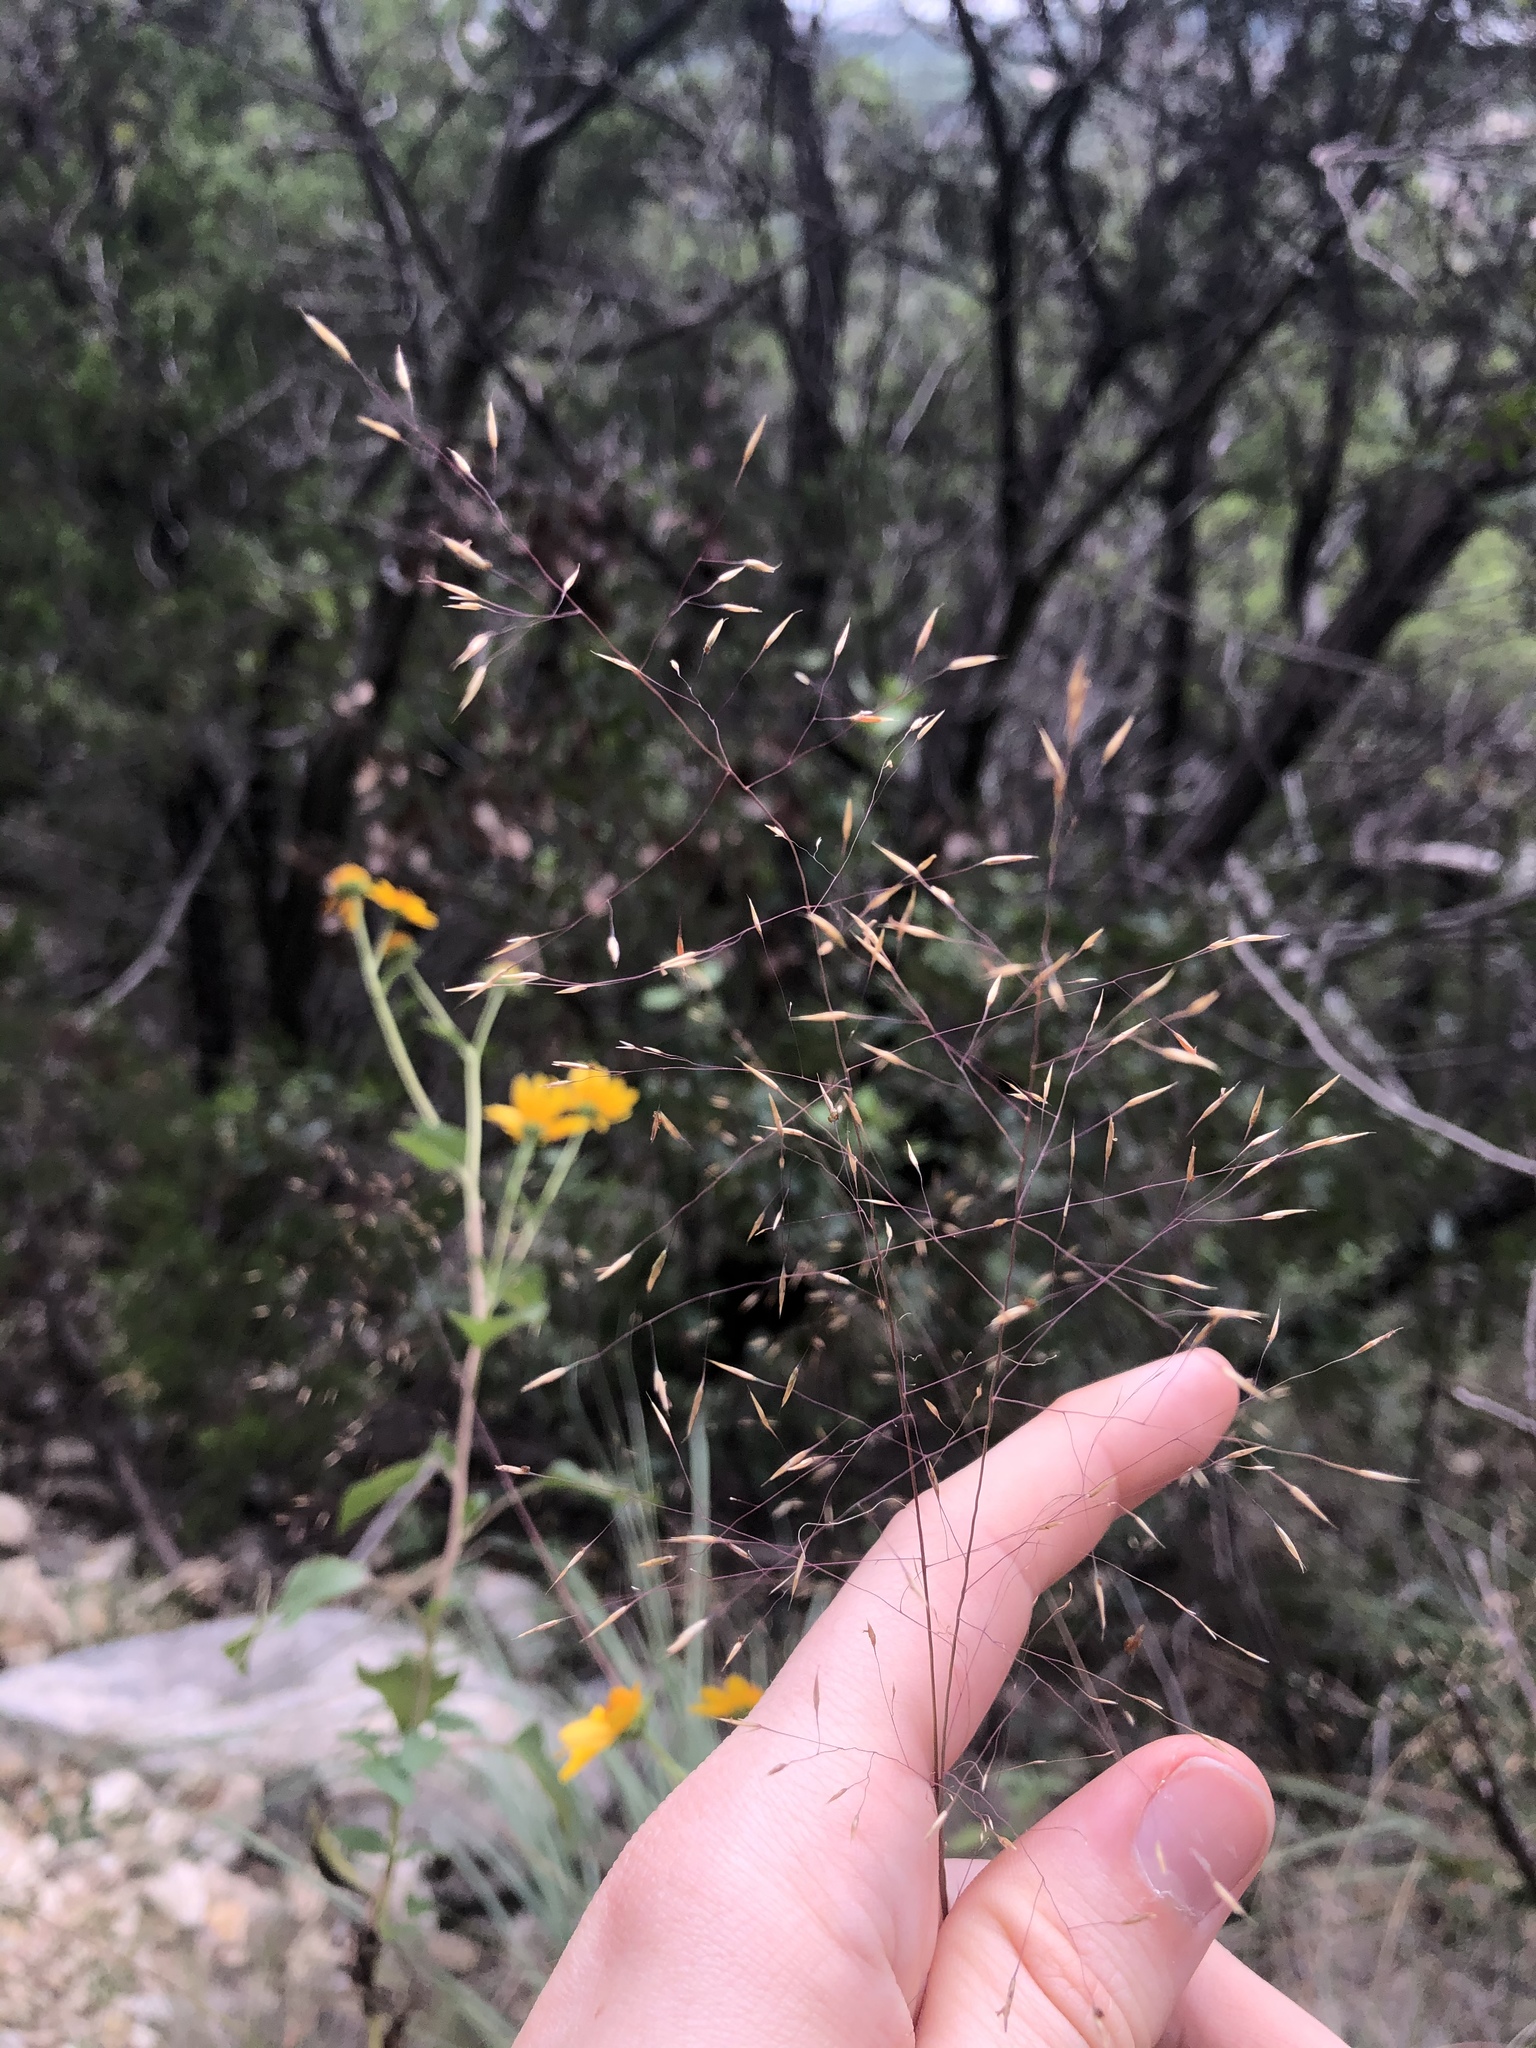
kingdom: Plantae
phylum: Tracheophyta
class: Liliopsida
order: Poales
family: Poaceae
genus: Muhlenbergia
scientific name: Muhlenbergia reverchonii
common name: Seep muhly
